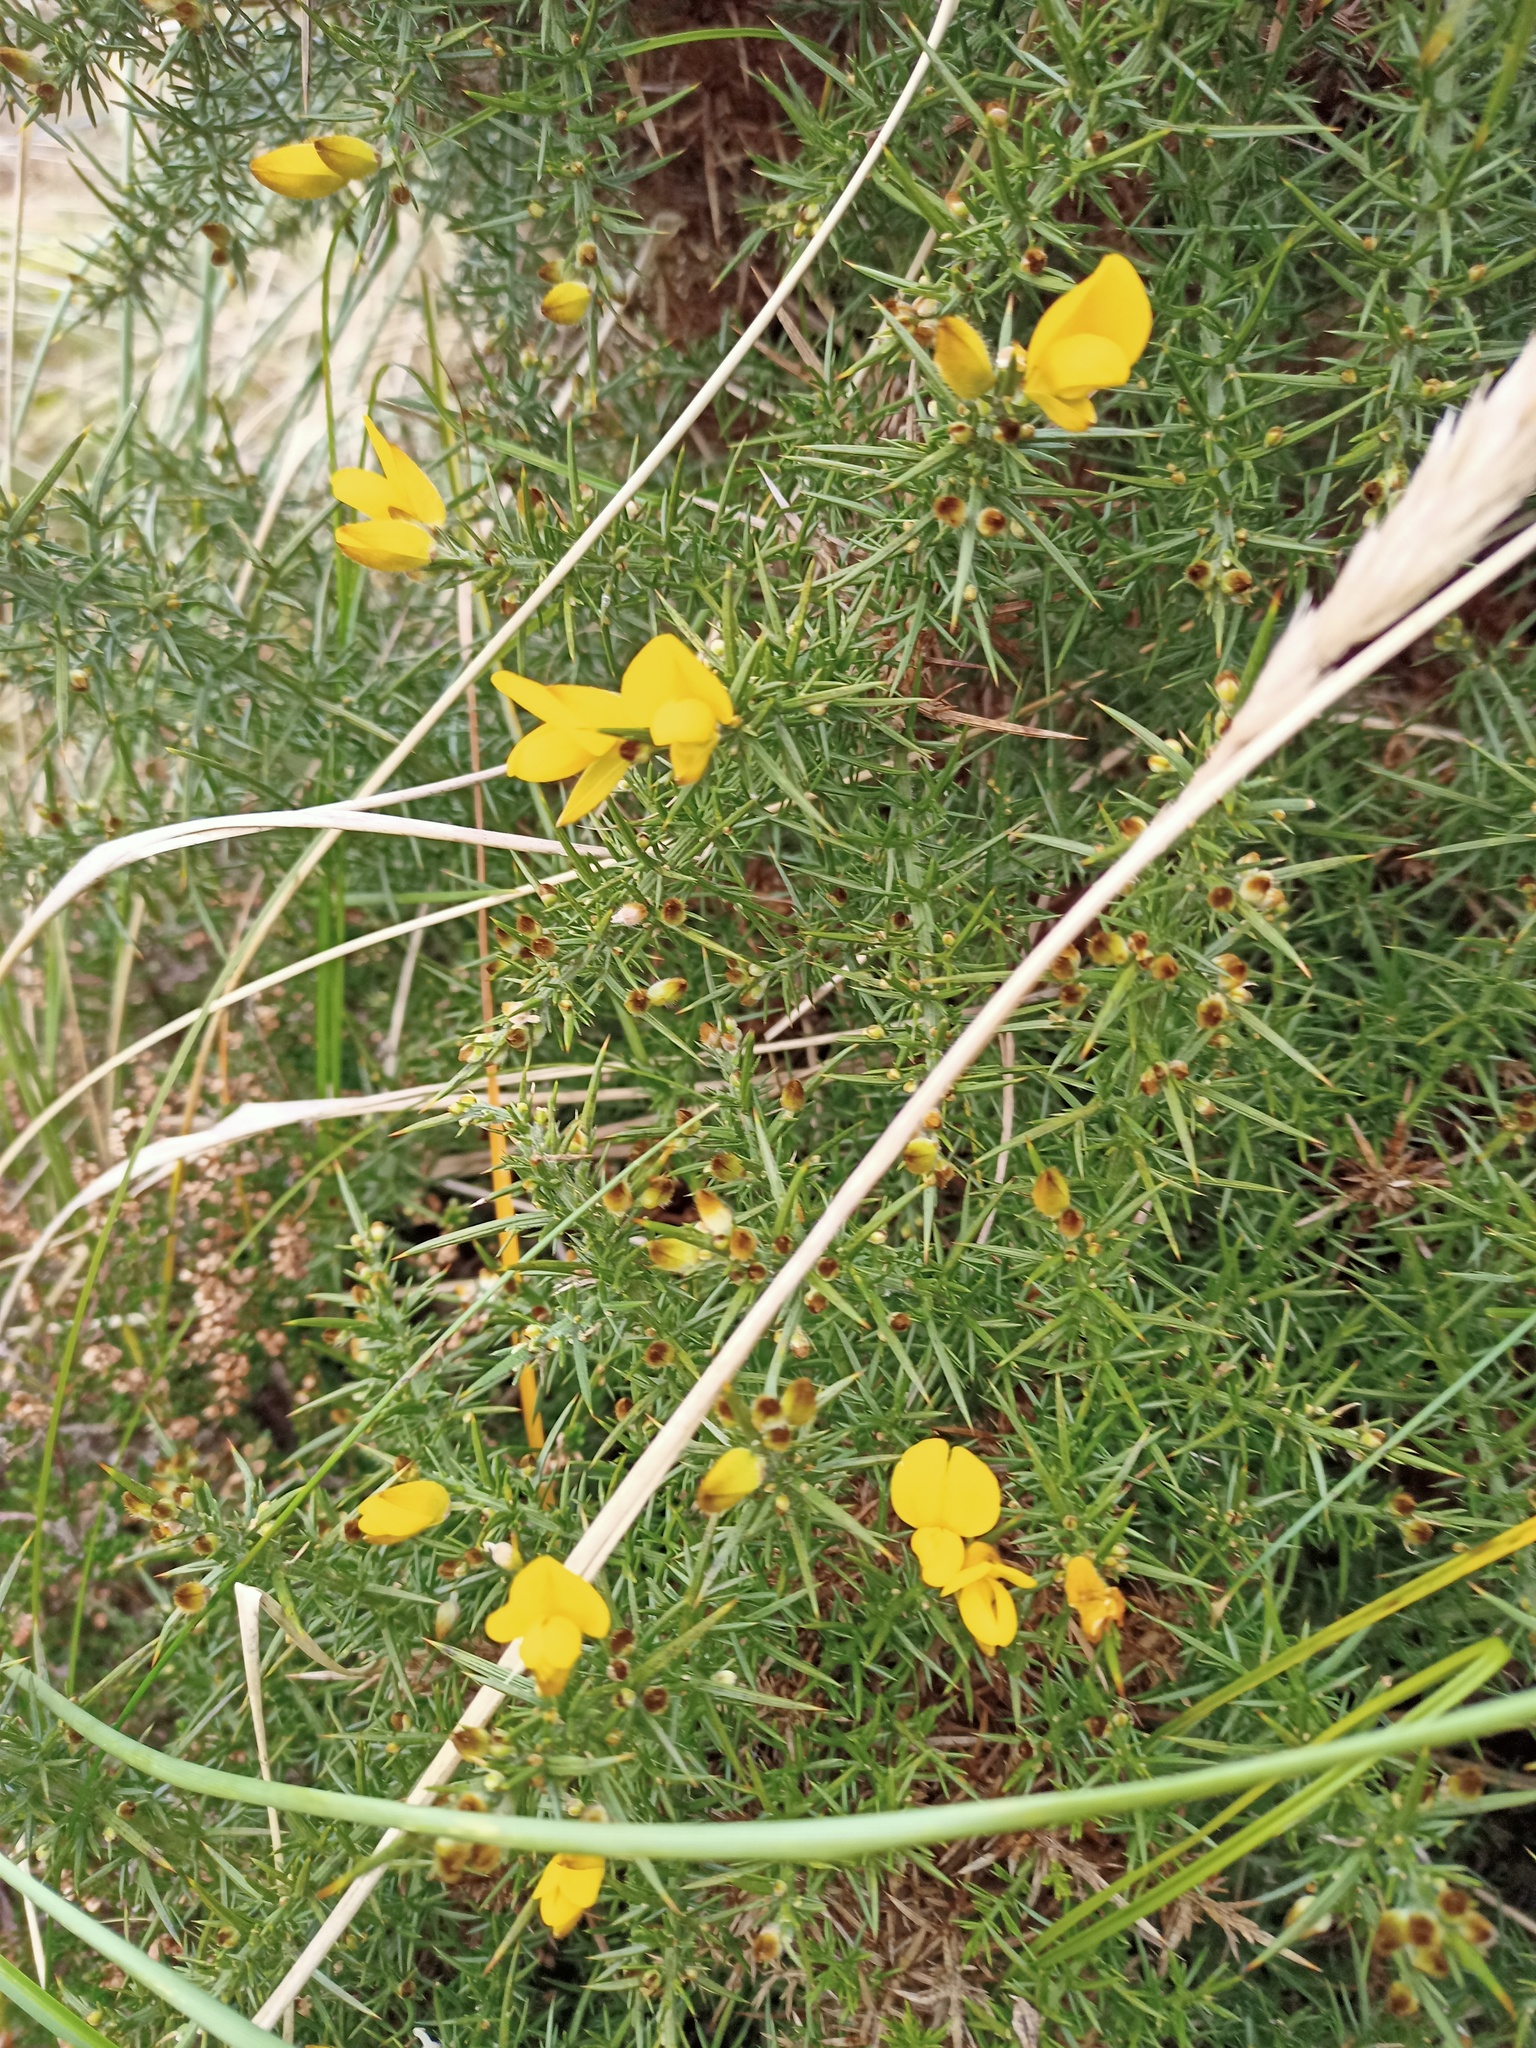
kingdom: Plantae
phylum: Tracheophyta
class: Magnoliopsida
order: Fabales
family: Fabaceae
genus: Ulex
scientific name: Ulex europaeus
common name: Common gorse
